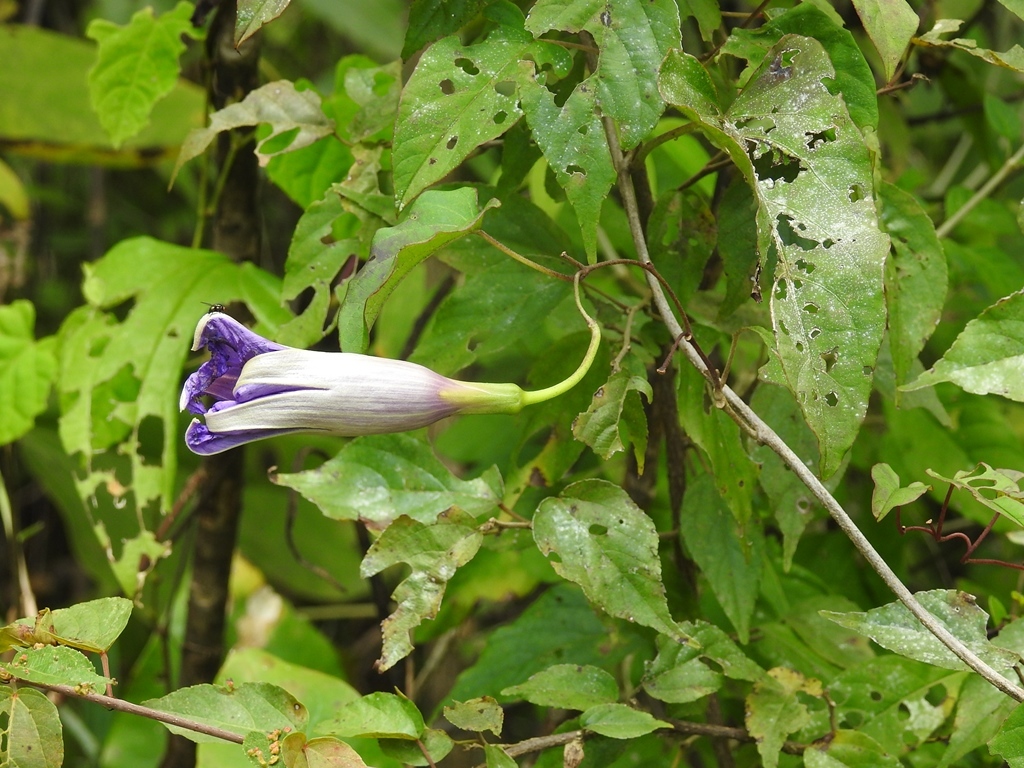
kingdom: Plantae
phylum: Tracheophyta
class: Magnoliopsida
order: Solanales
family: Convolvulaceae
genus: Ipomoea
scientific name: Ipomoea lindenii
